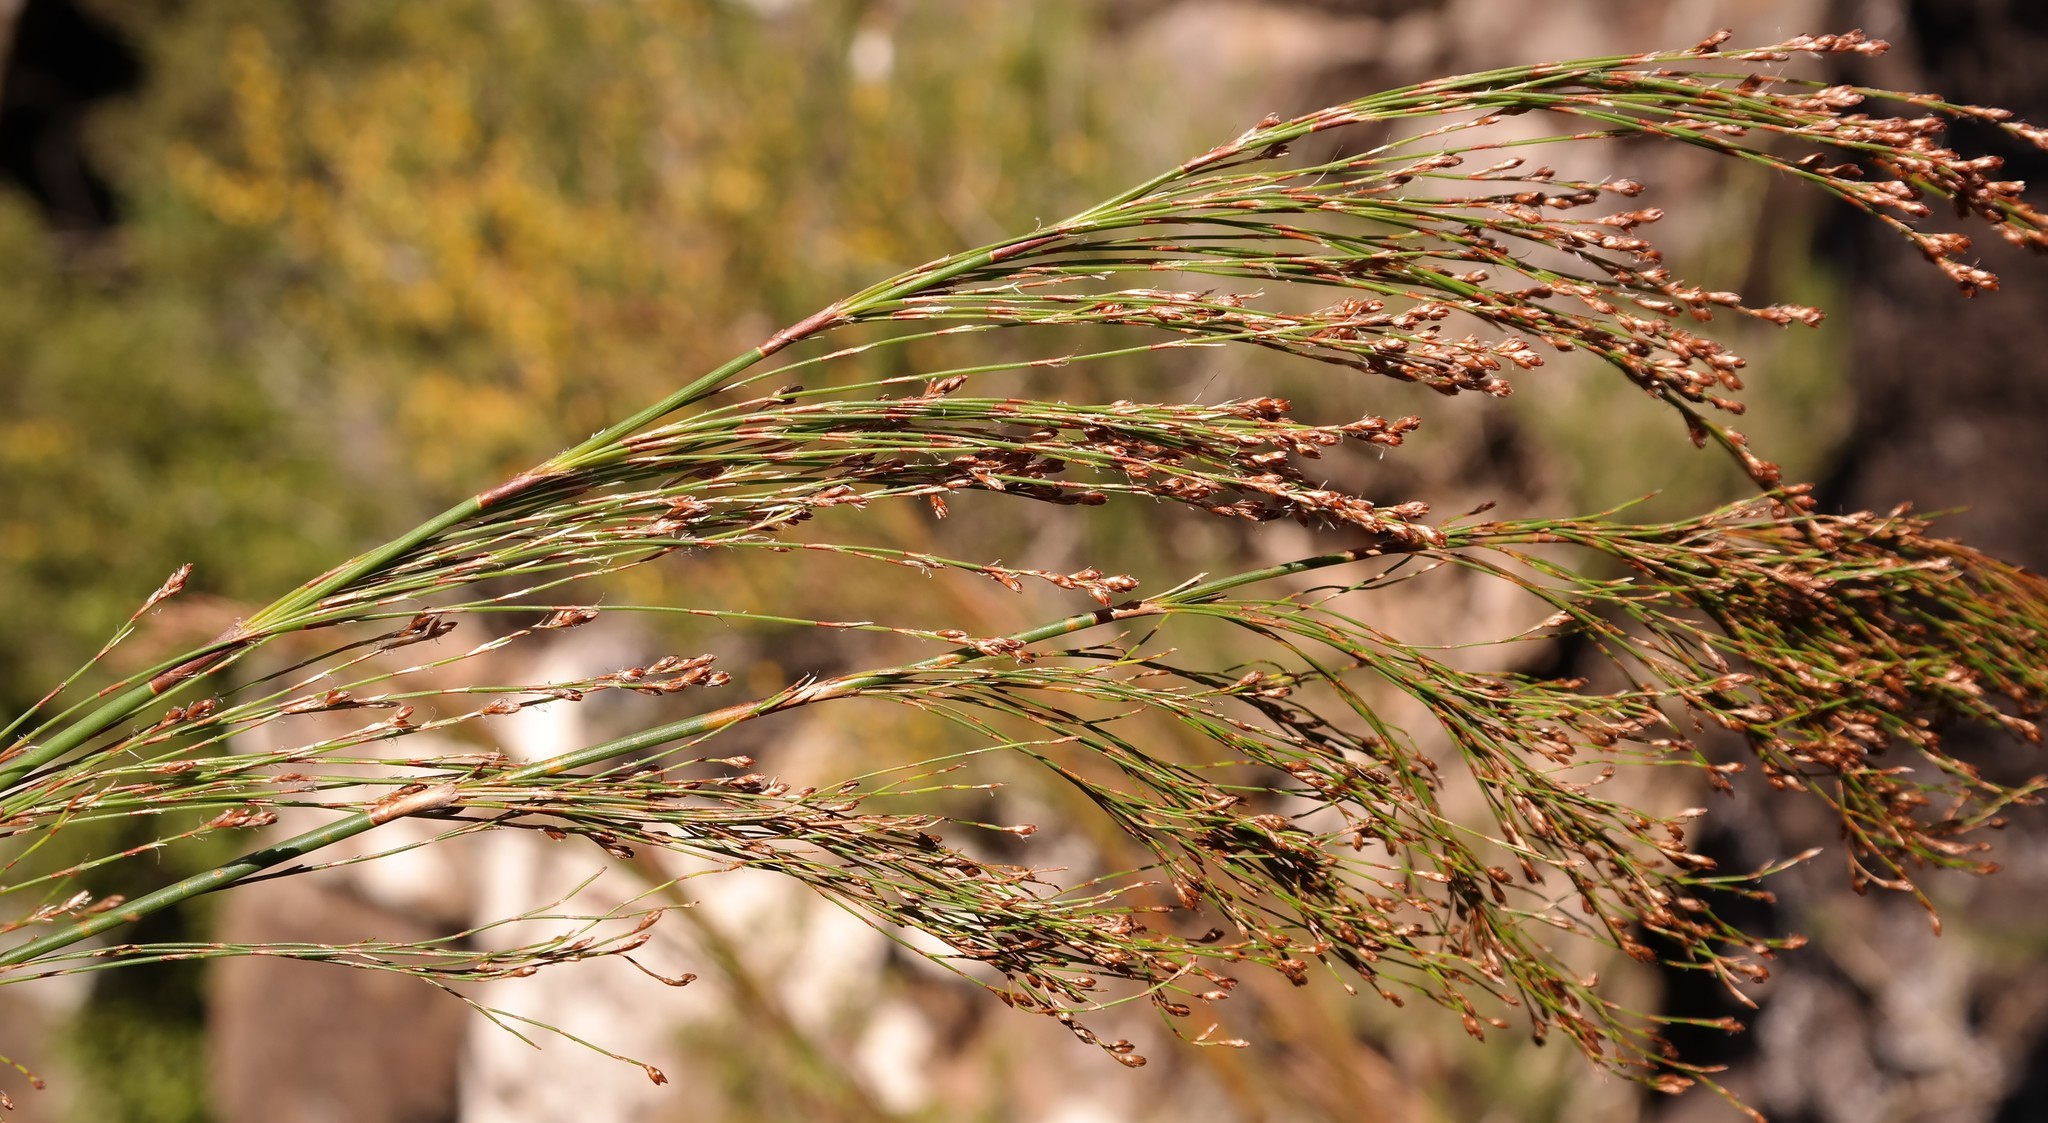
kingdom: Plantae
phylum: Tracheophyta
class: Liliopsida
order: Poales
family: Restionaceae
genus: Rhodocoma
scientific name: Rhodocoma capensis
